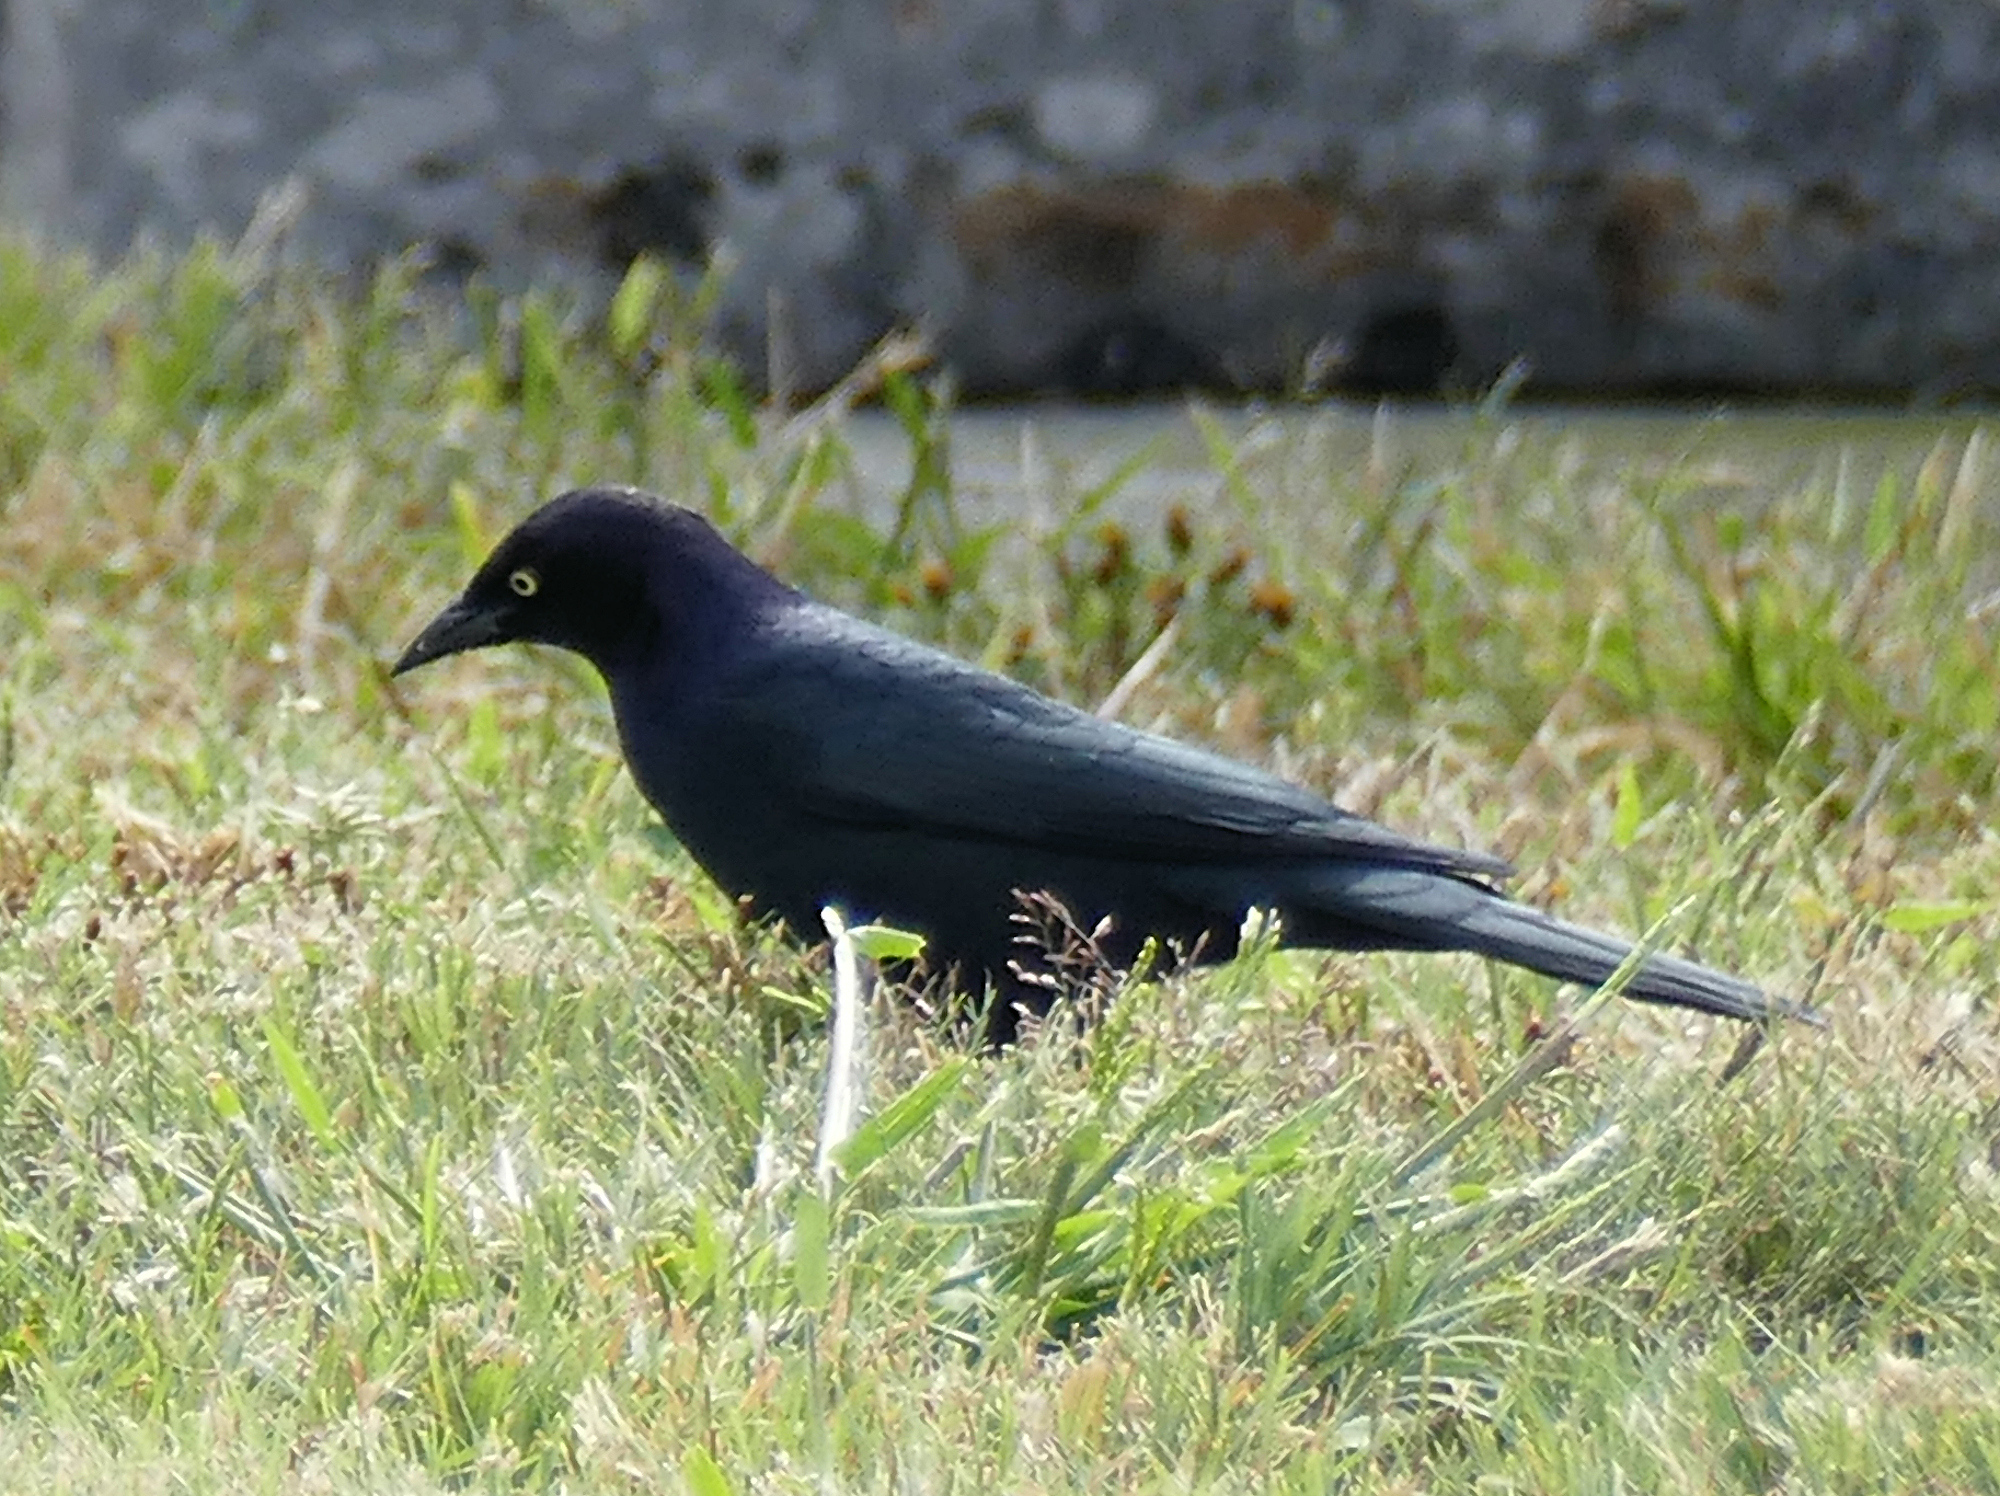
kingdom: Animalia
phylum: Chordata
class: Aves
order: Passeriformes
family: Icteridae
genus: Euphagus
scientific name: Euphagus cyanocephalus
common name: Brewer's blackbird
